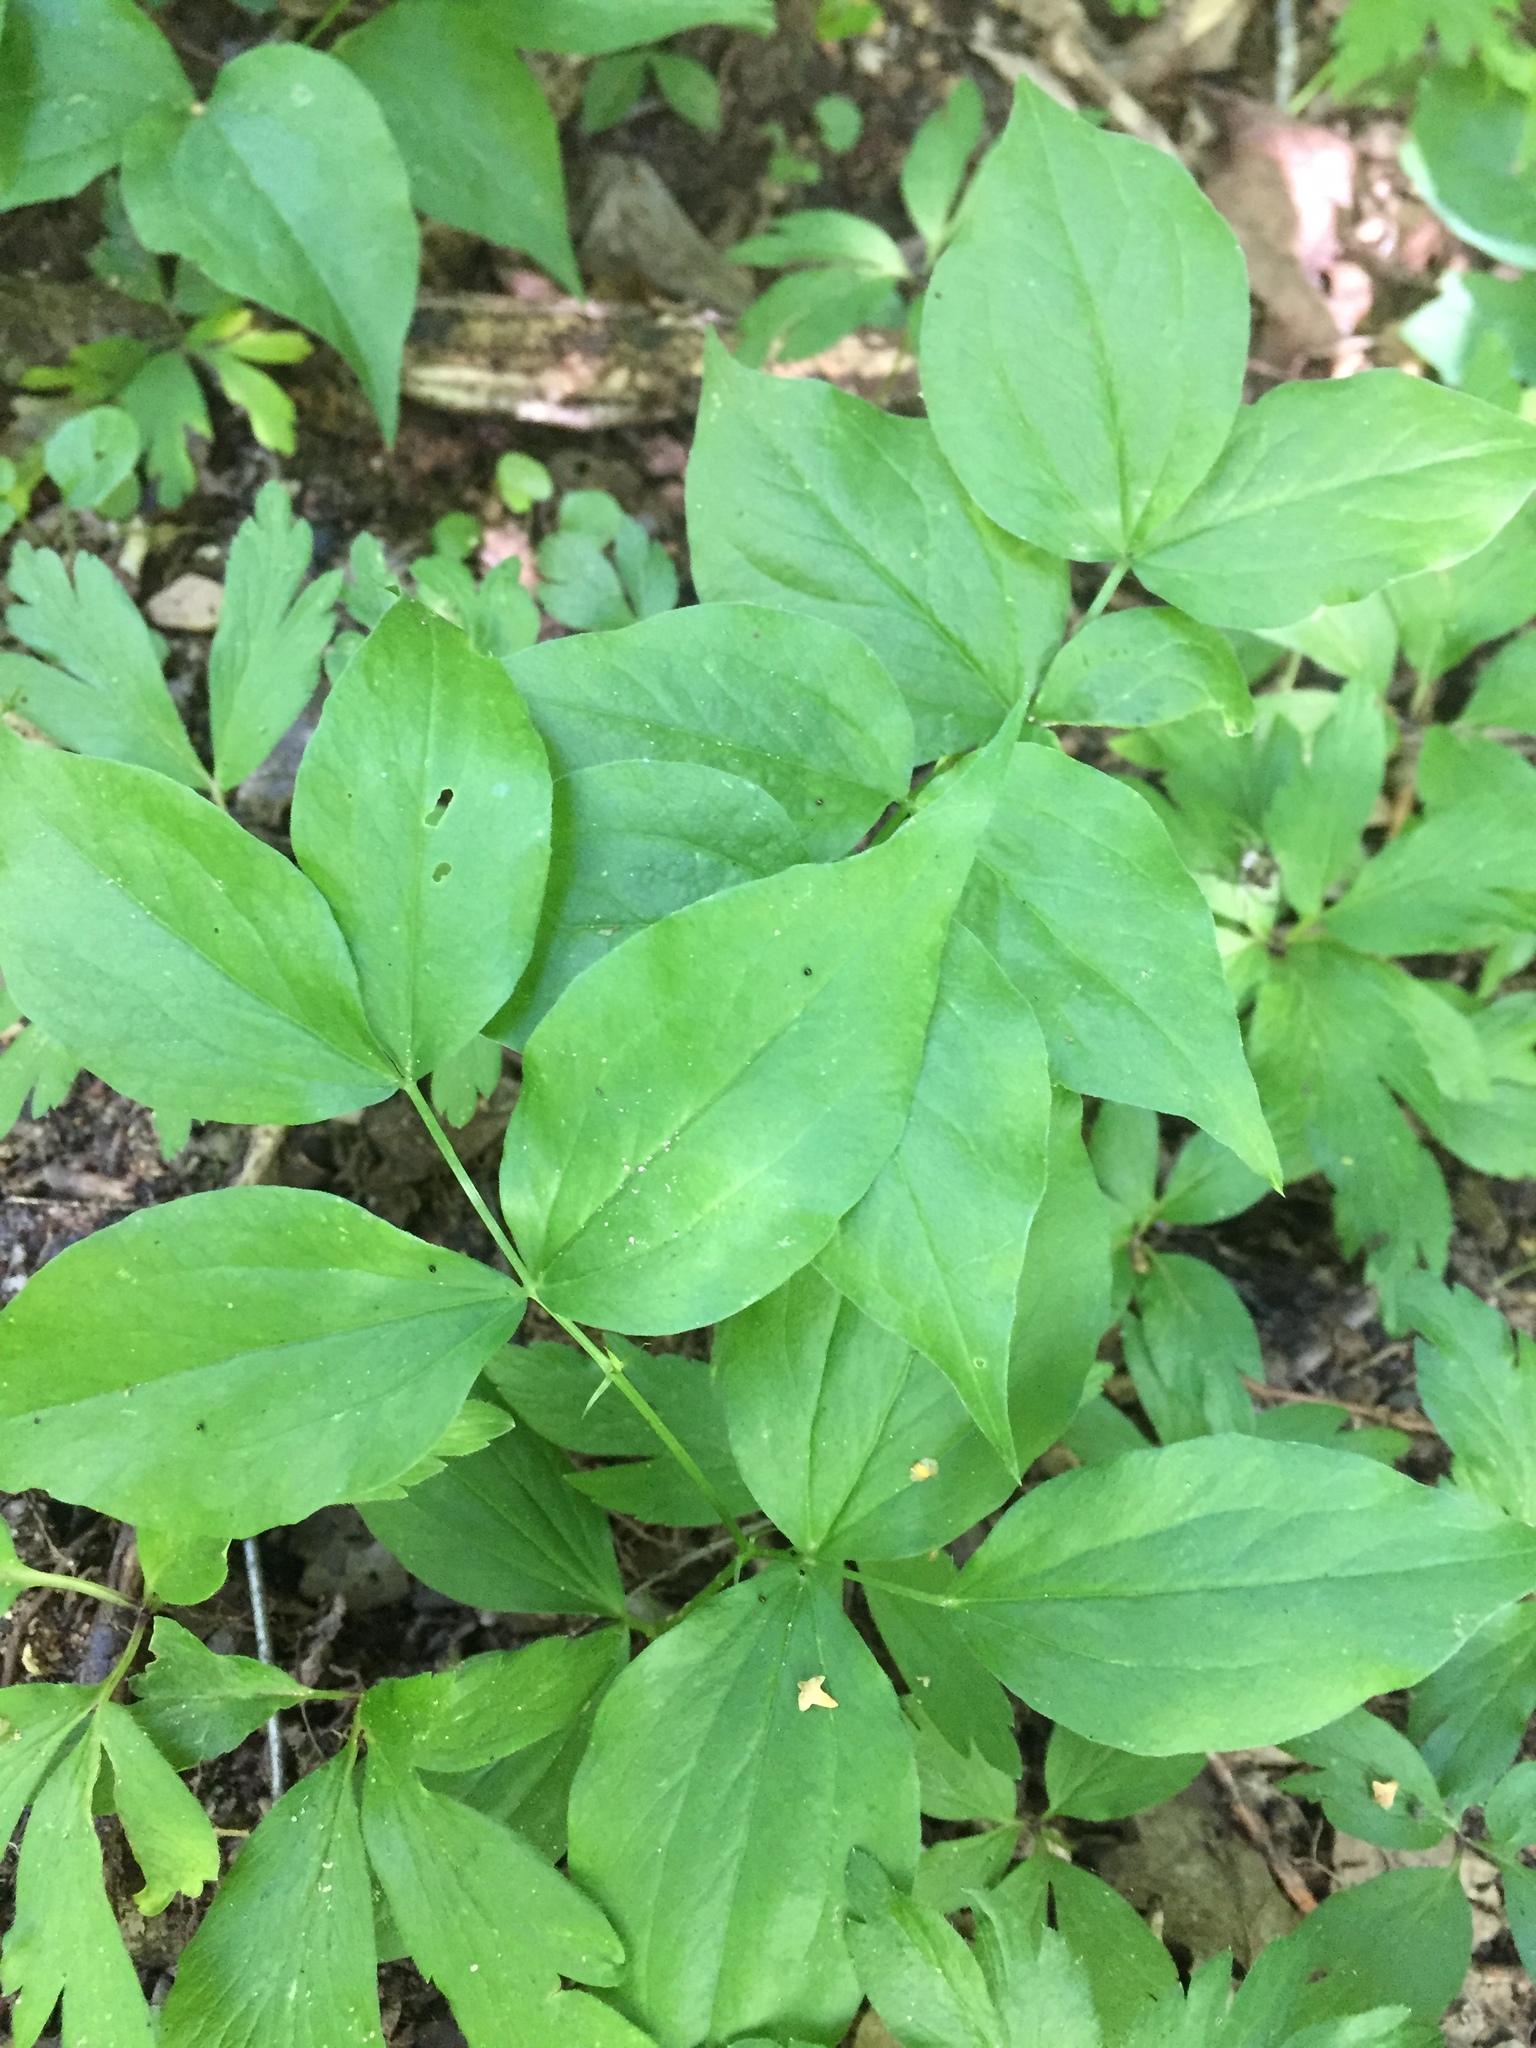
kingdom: Plantae
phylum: Tracheophyta
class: Magnoliopsida
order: Fabales
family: Fabaceae
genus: Lathyrus
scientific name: Lathyrus vernus
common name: Spring pea
